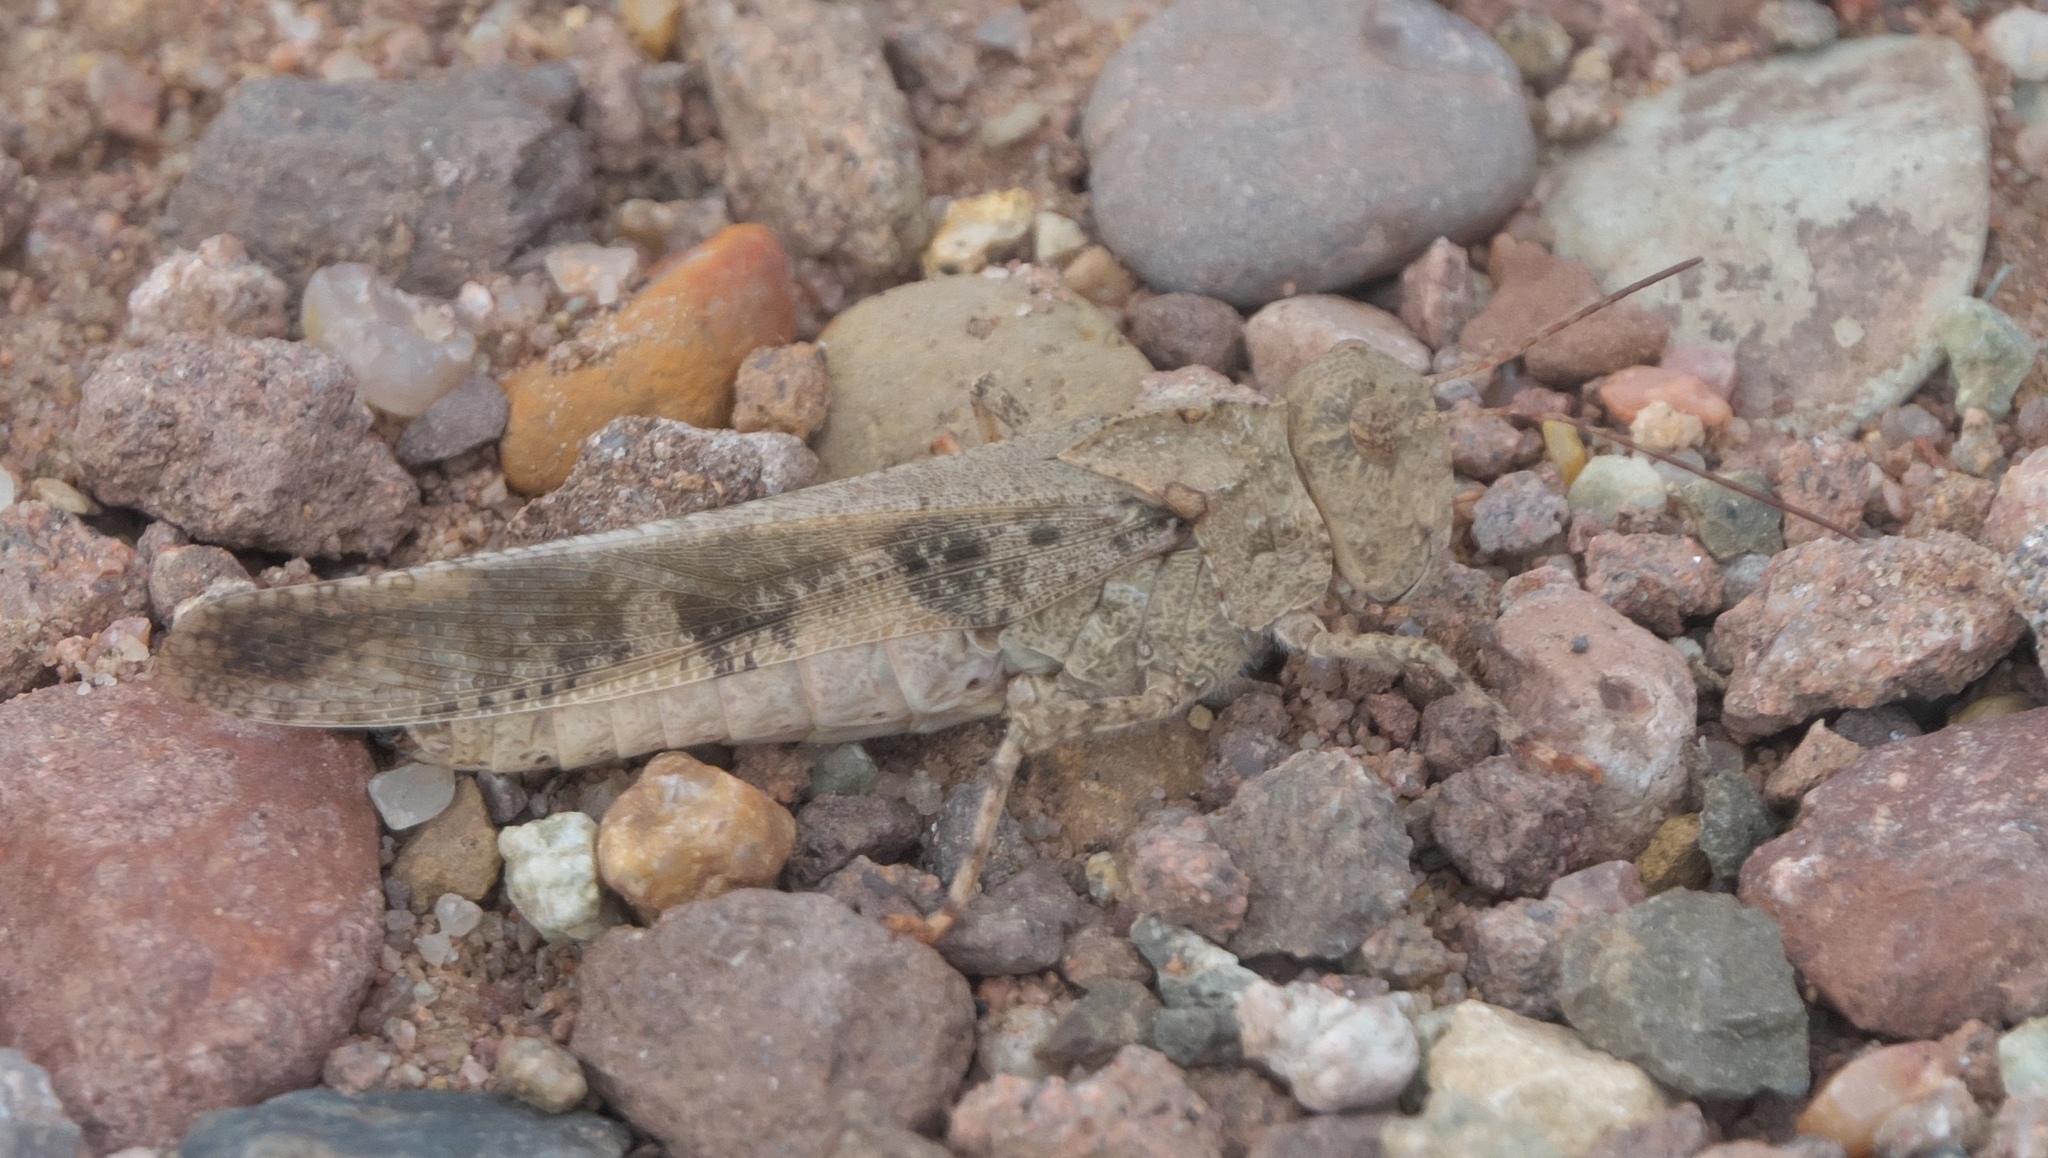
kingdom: Animalia
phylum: Arthropoda
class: Insecta
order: Orthoptera
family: Acrididae
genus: Spharagemon
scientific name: Spharagemon collare
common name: Mottled sand grasshopper
